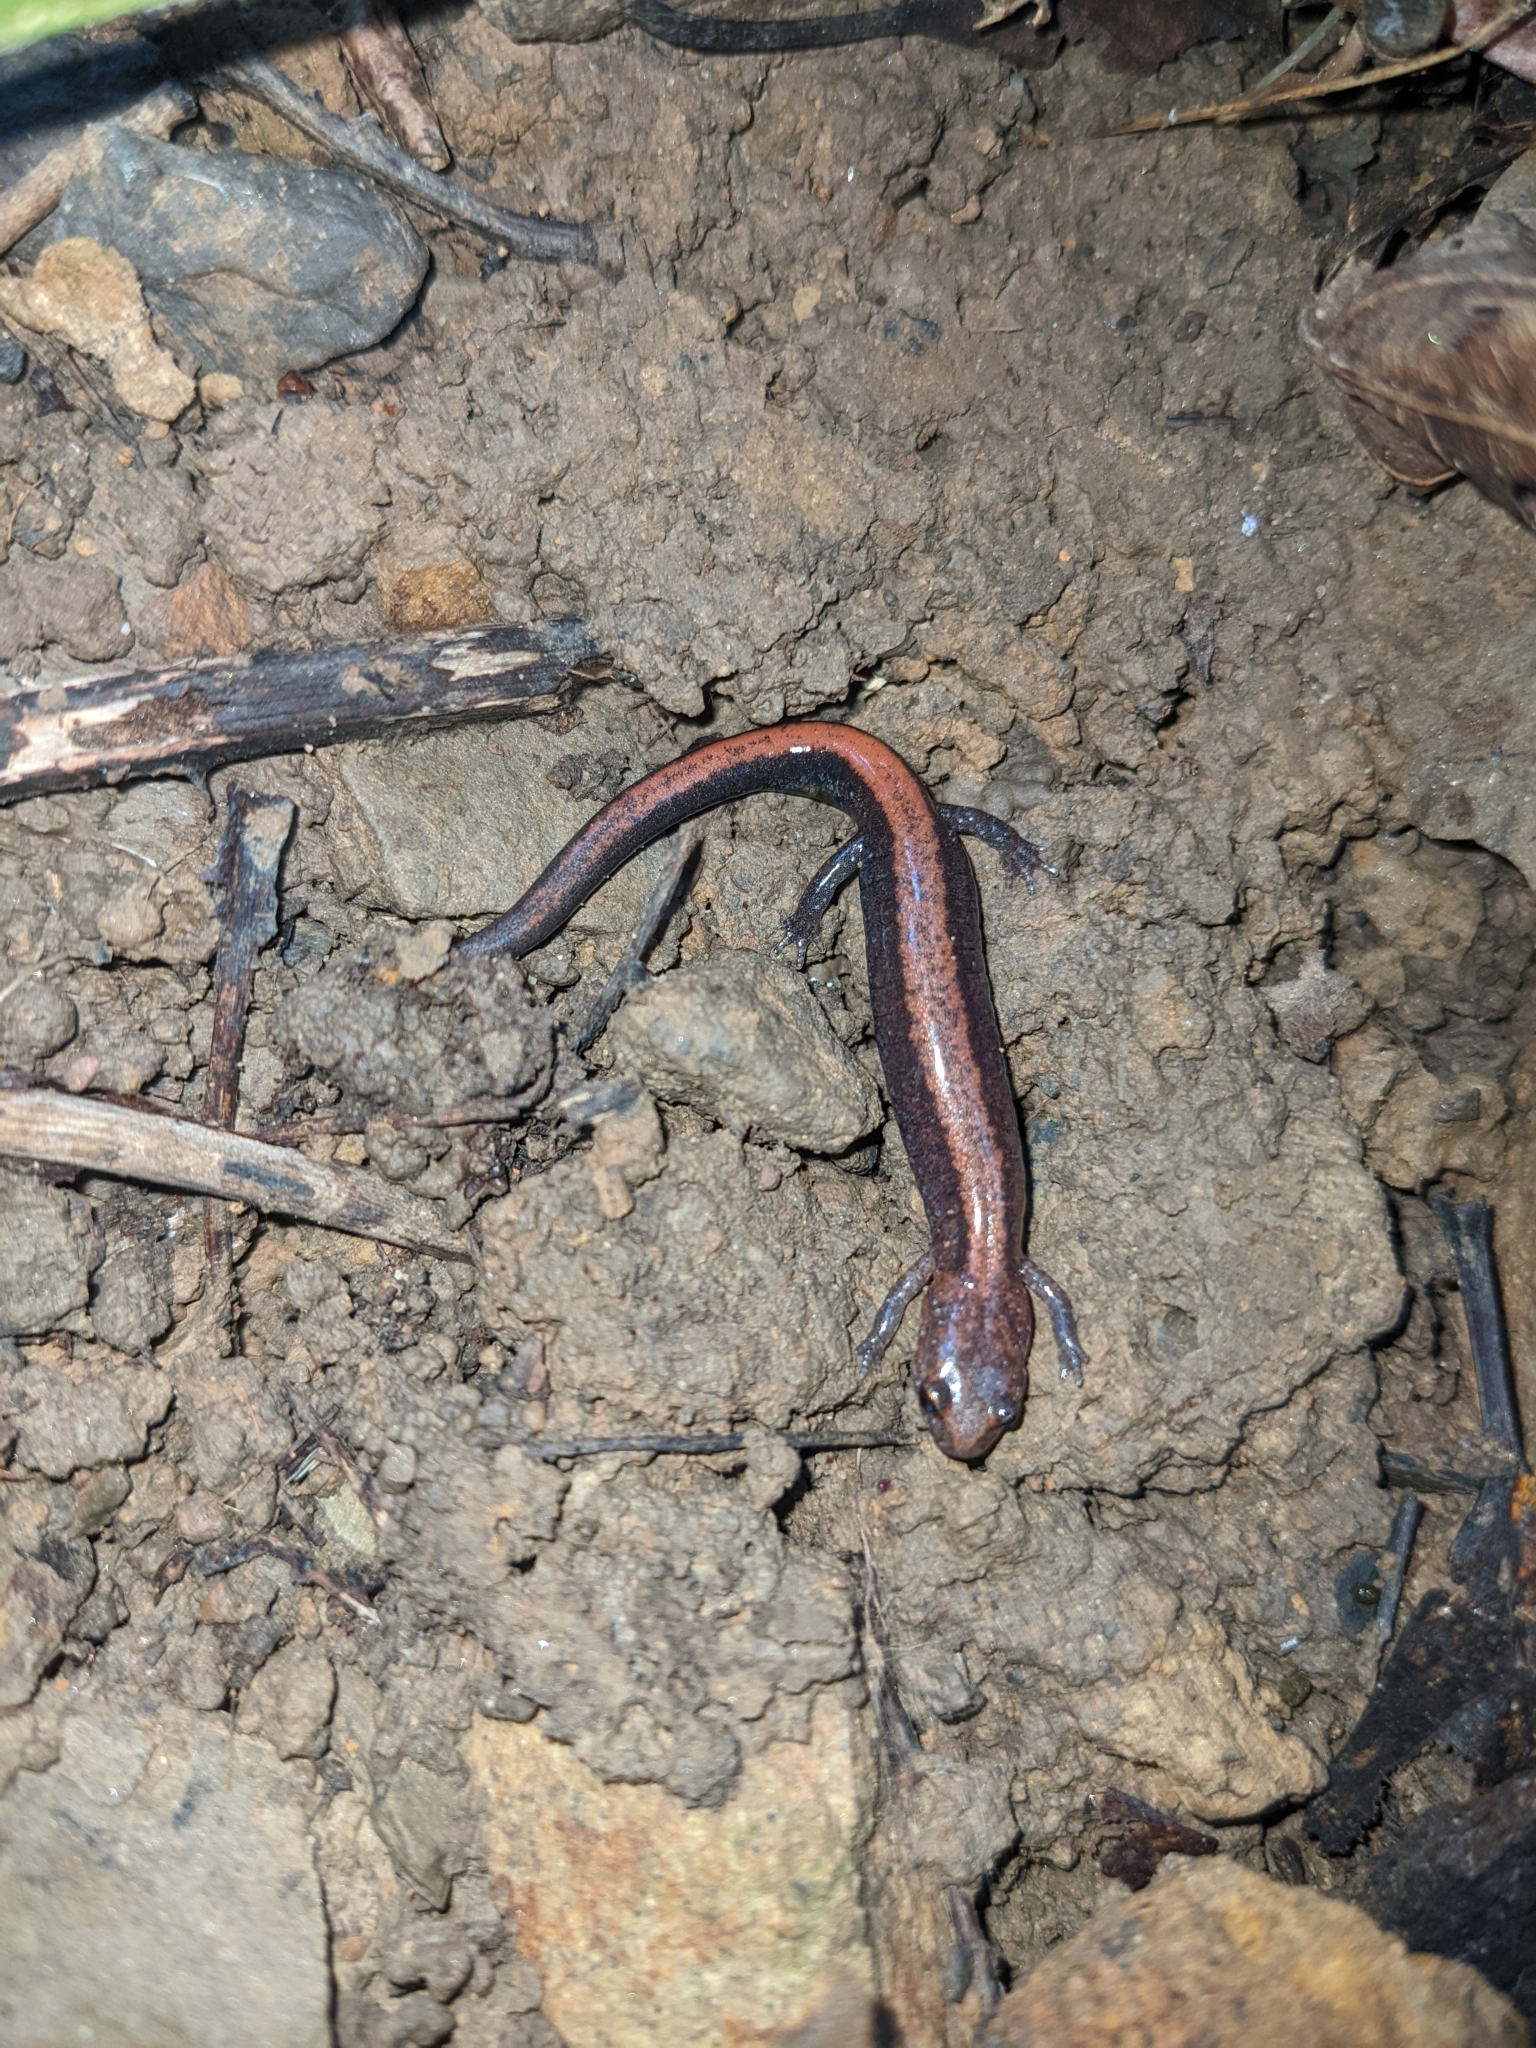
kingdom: Animalia
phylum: Chordata
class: Amphibia
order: Caudata
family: Plethodontidae
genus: Plethodon
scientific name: Plethodon cinereus
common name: Redback salamander
